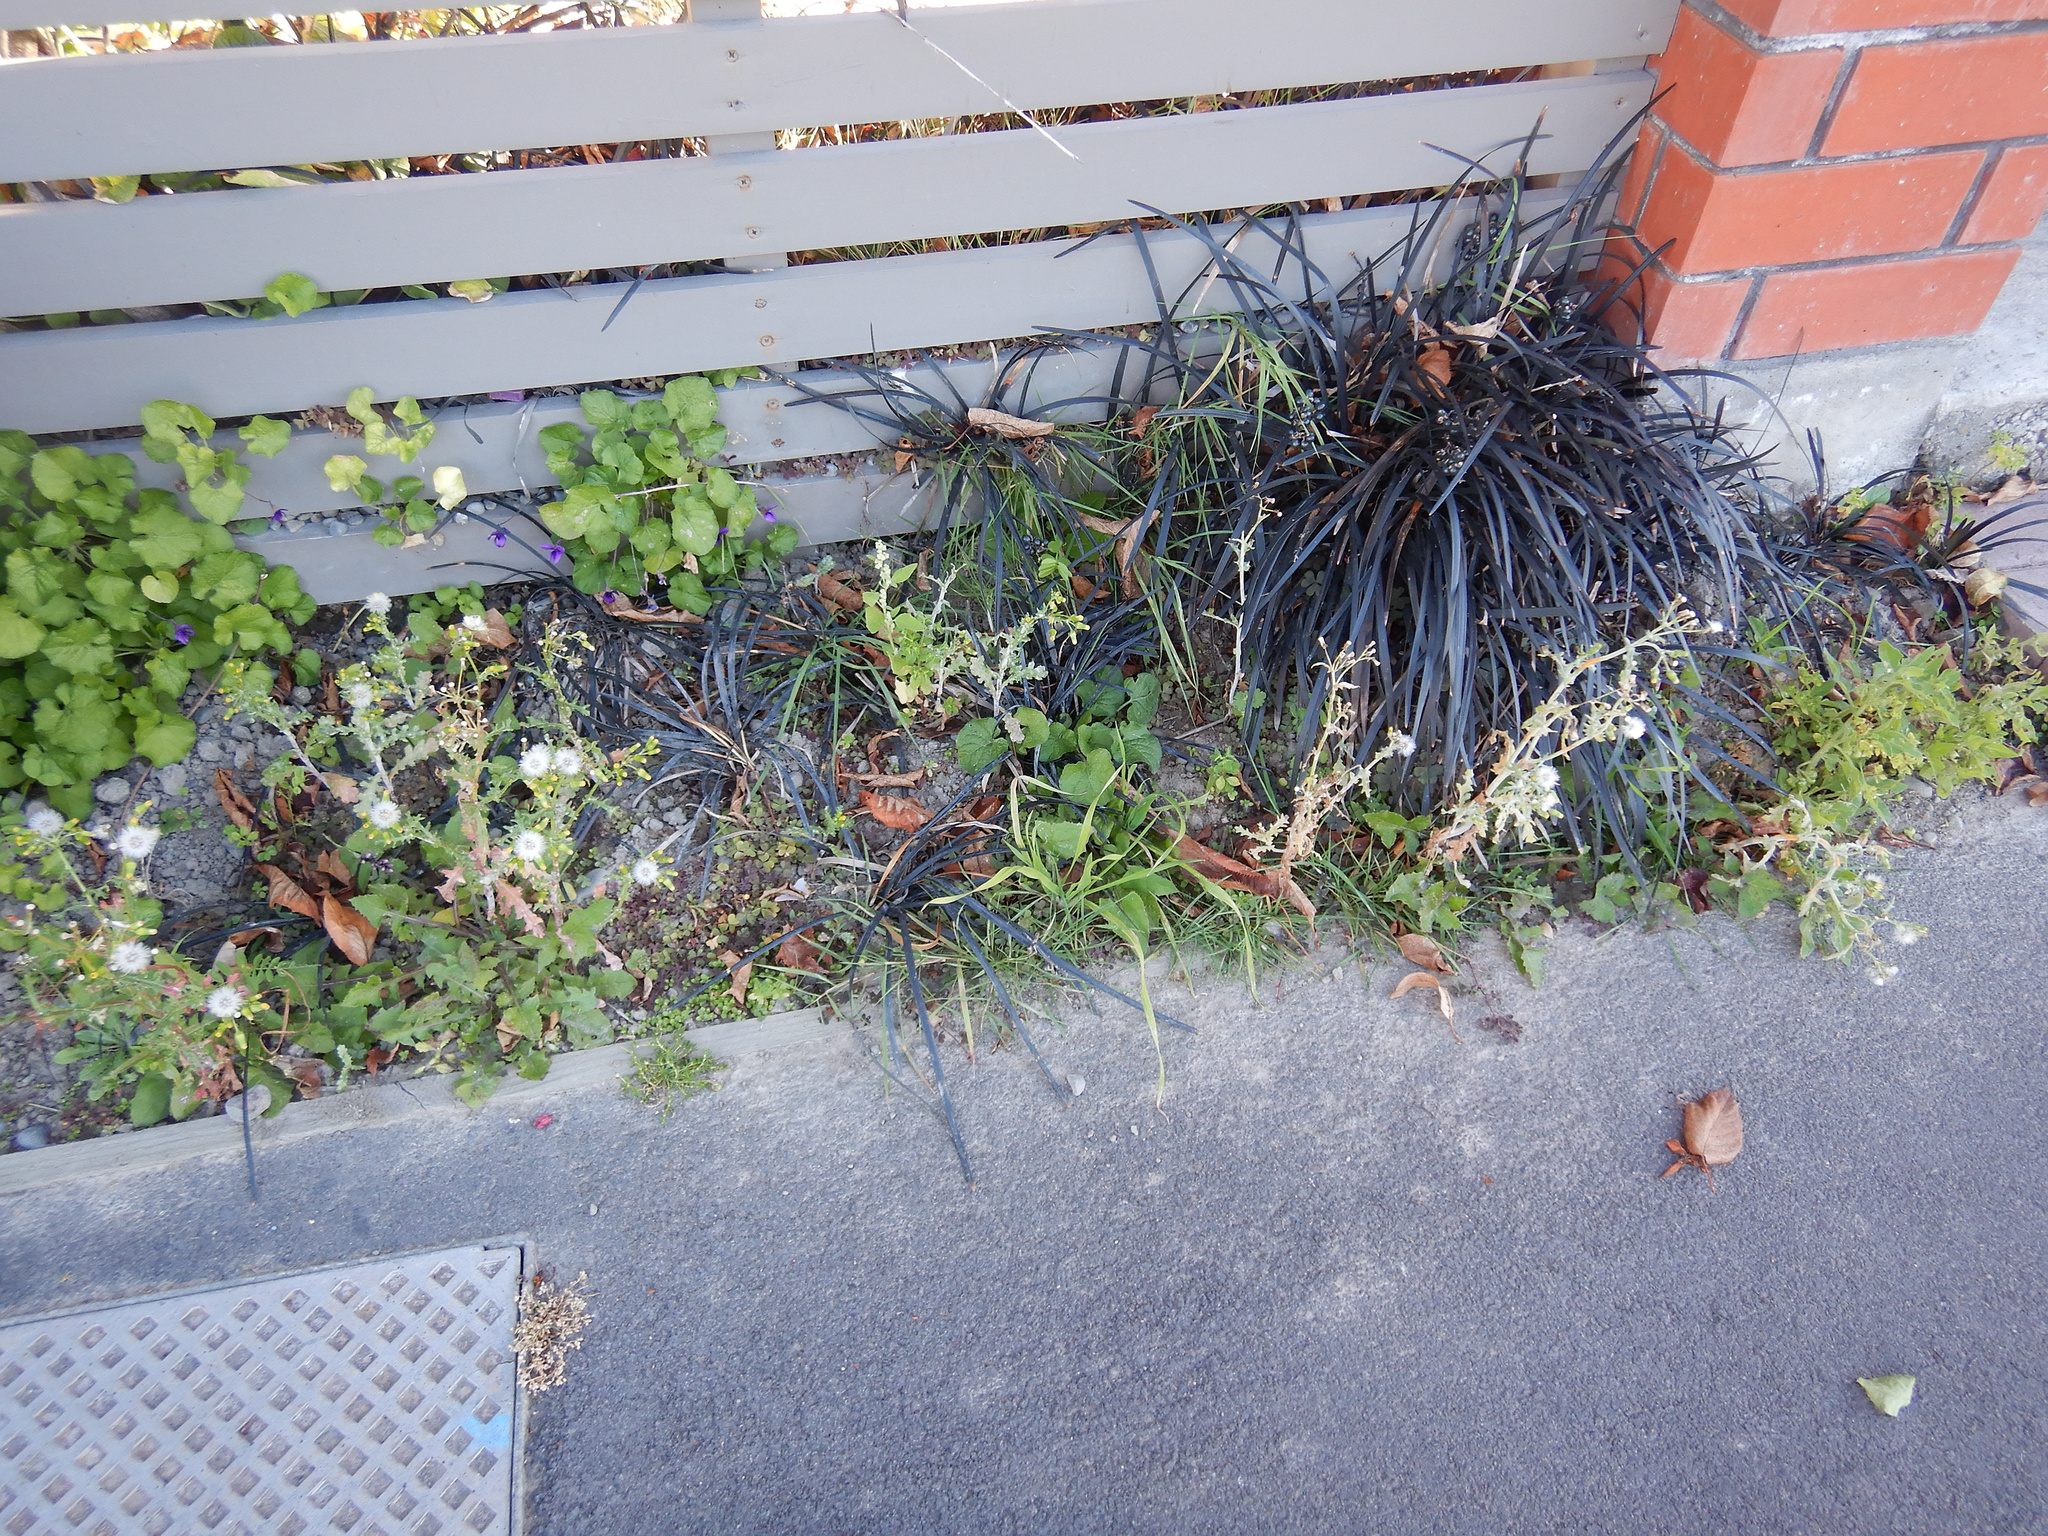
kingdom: Plantae
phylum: Tracheophyta
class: Magnoliopsida
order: Asterales
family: Asteraceae
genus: Senecio
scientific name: Senecio vulgaris
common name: Old-man-in-the-spring
